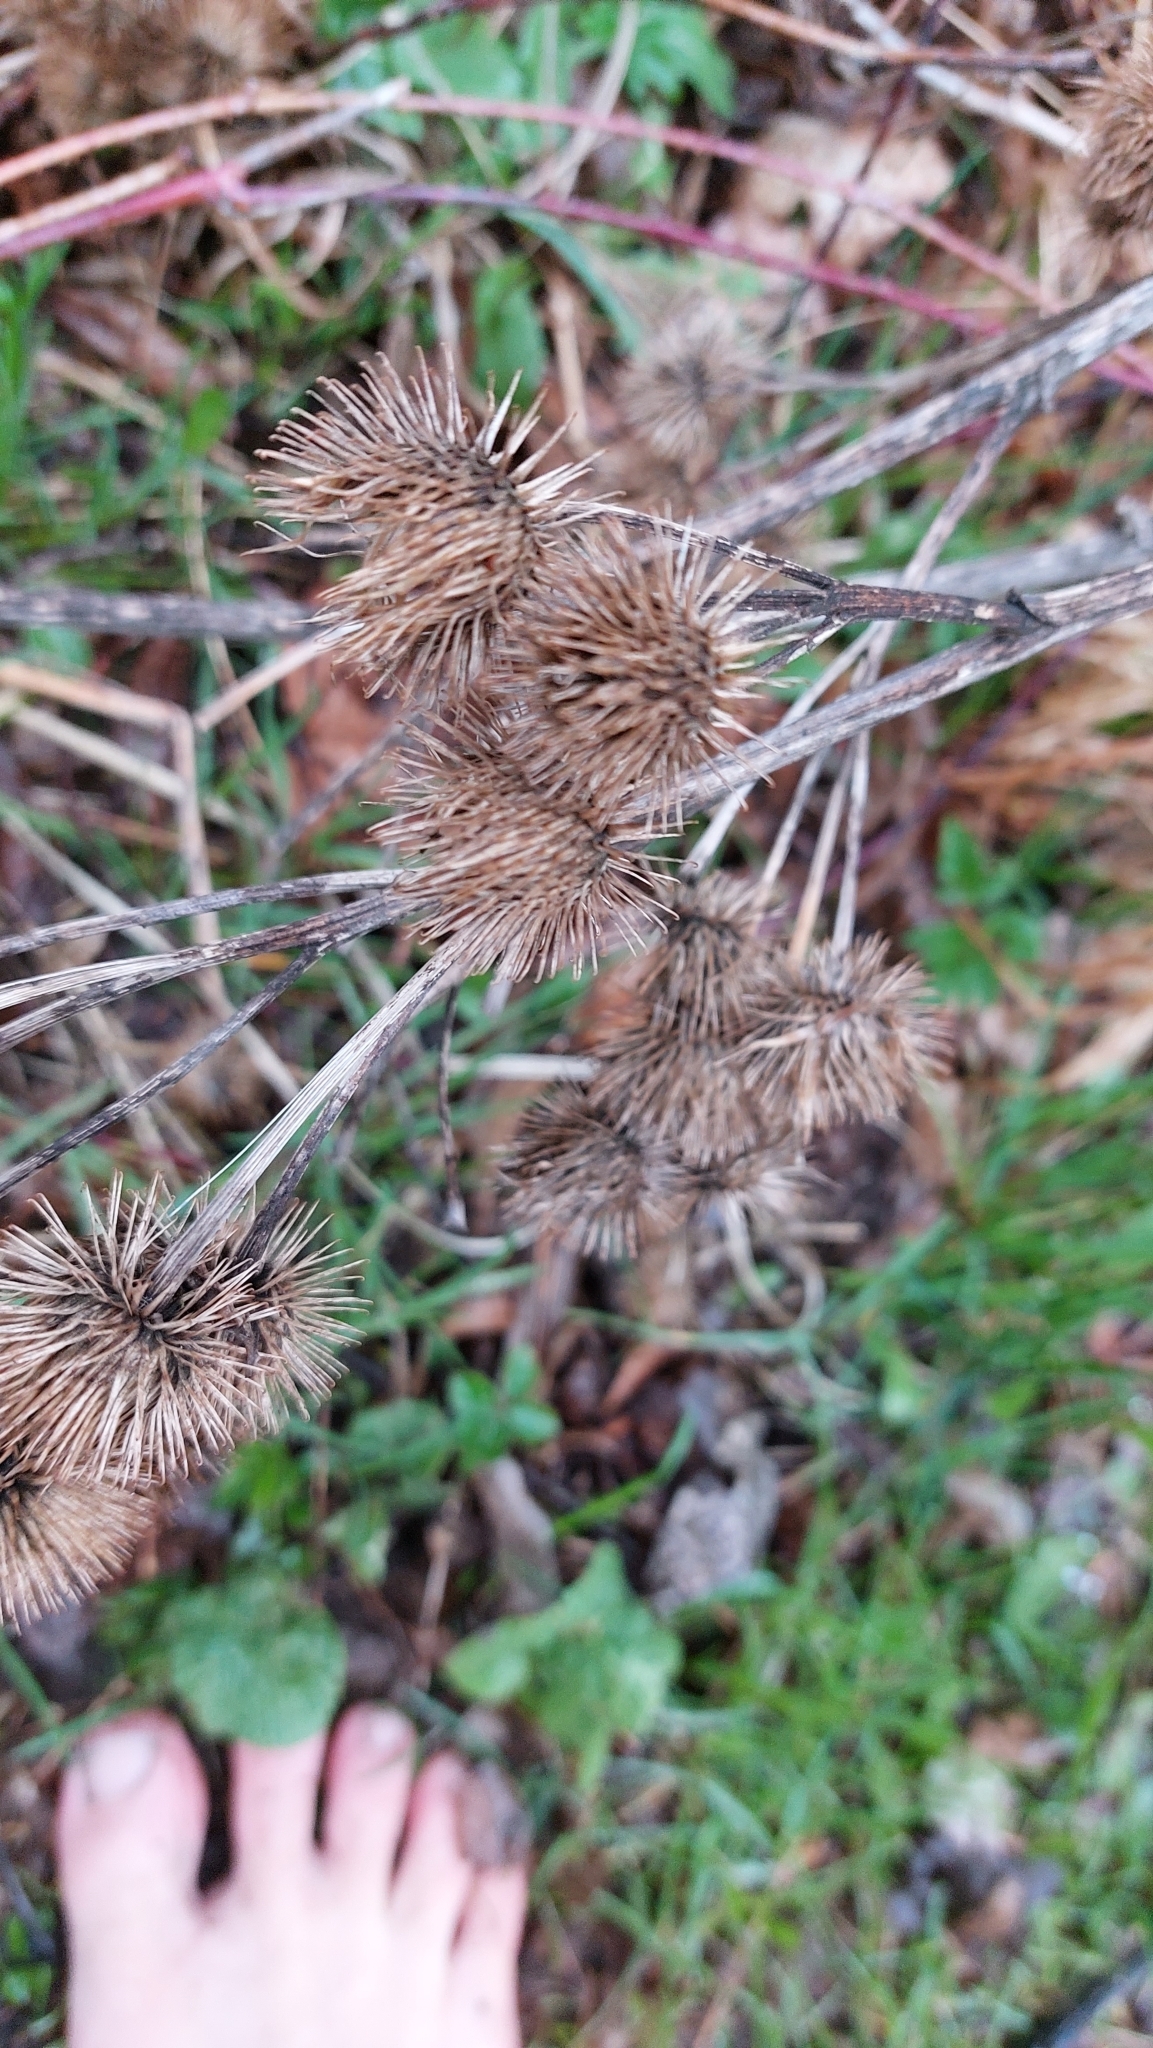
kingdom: Plantae
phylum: Tracheophyta
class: Magnoliopsida
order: Asterales
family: Asteraceae
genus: Arctium
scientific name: Arctium lappa
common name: Greater burdock
